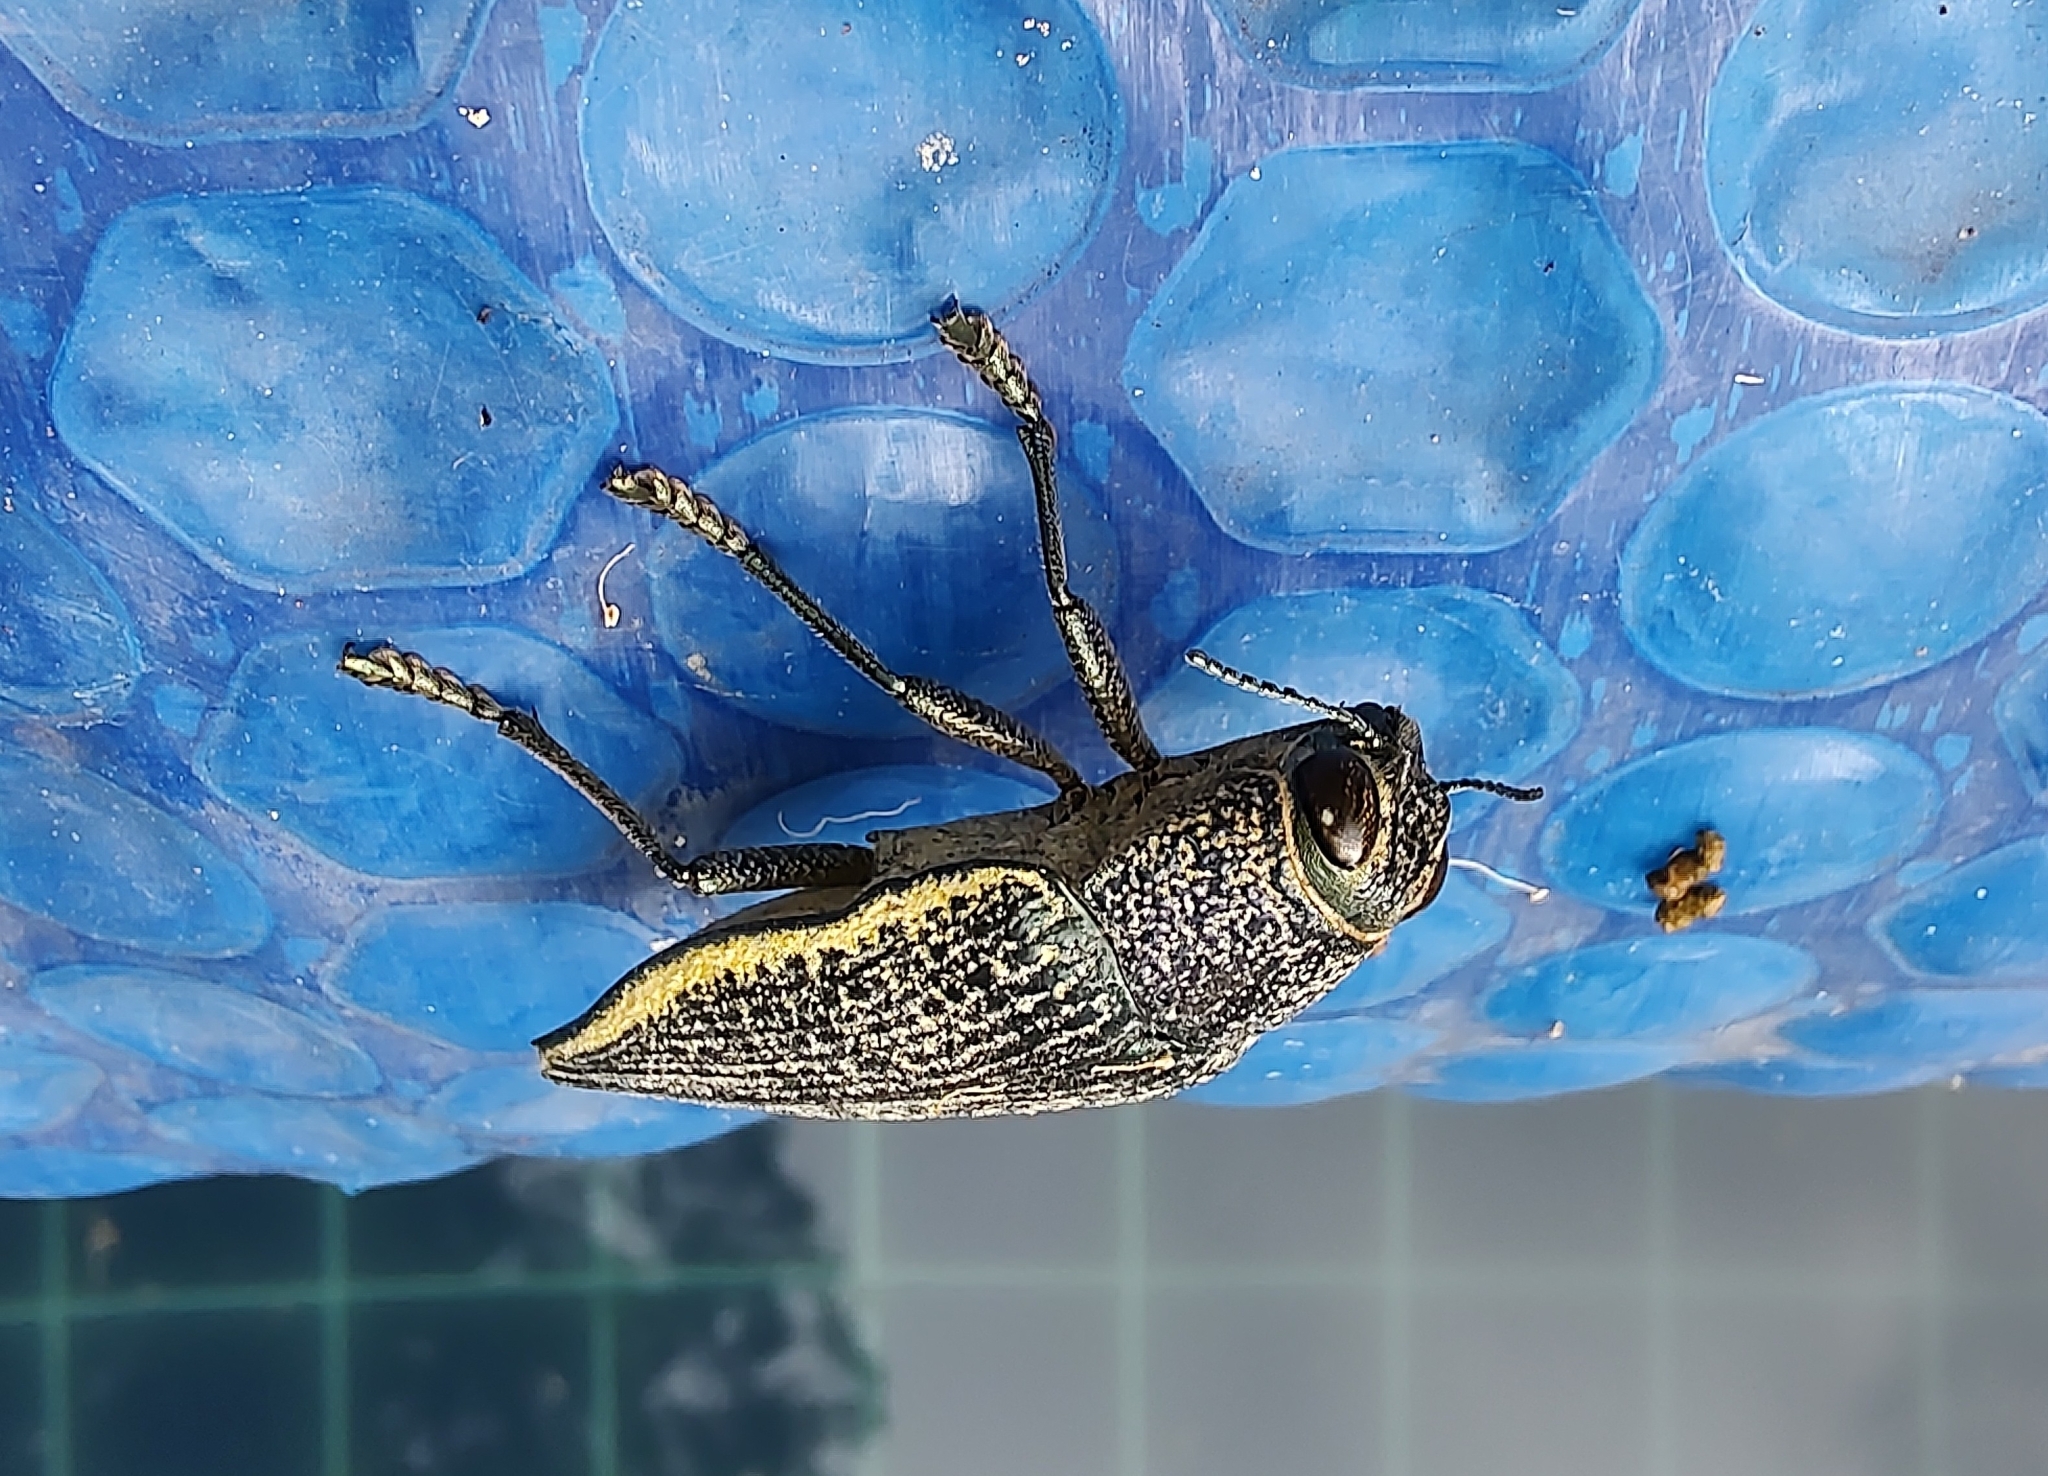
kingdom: Animalia
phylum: Arthropoda
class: Insecta
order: Coleoptera
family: Buprestidae
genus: Psiloptera
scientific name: Psiloptera olivieri
